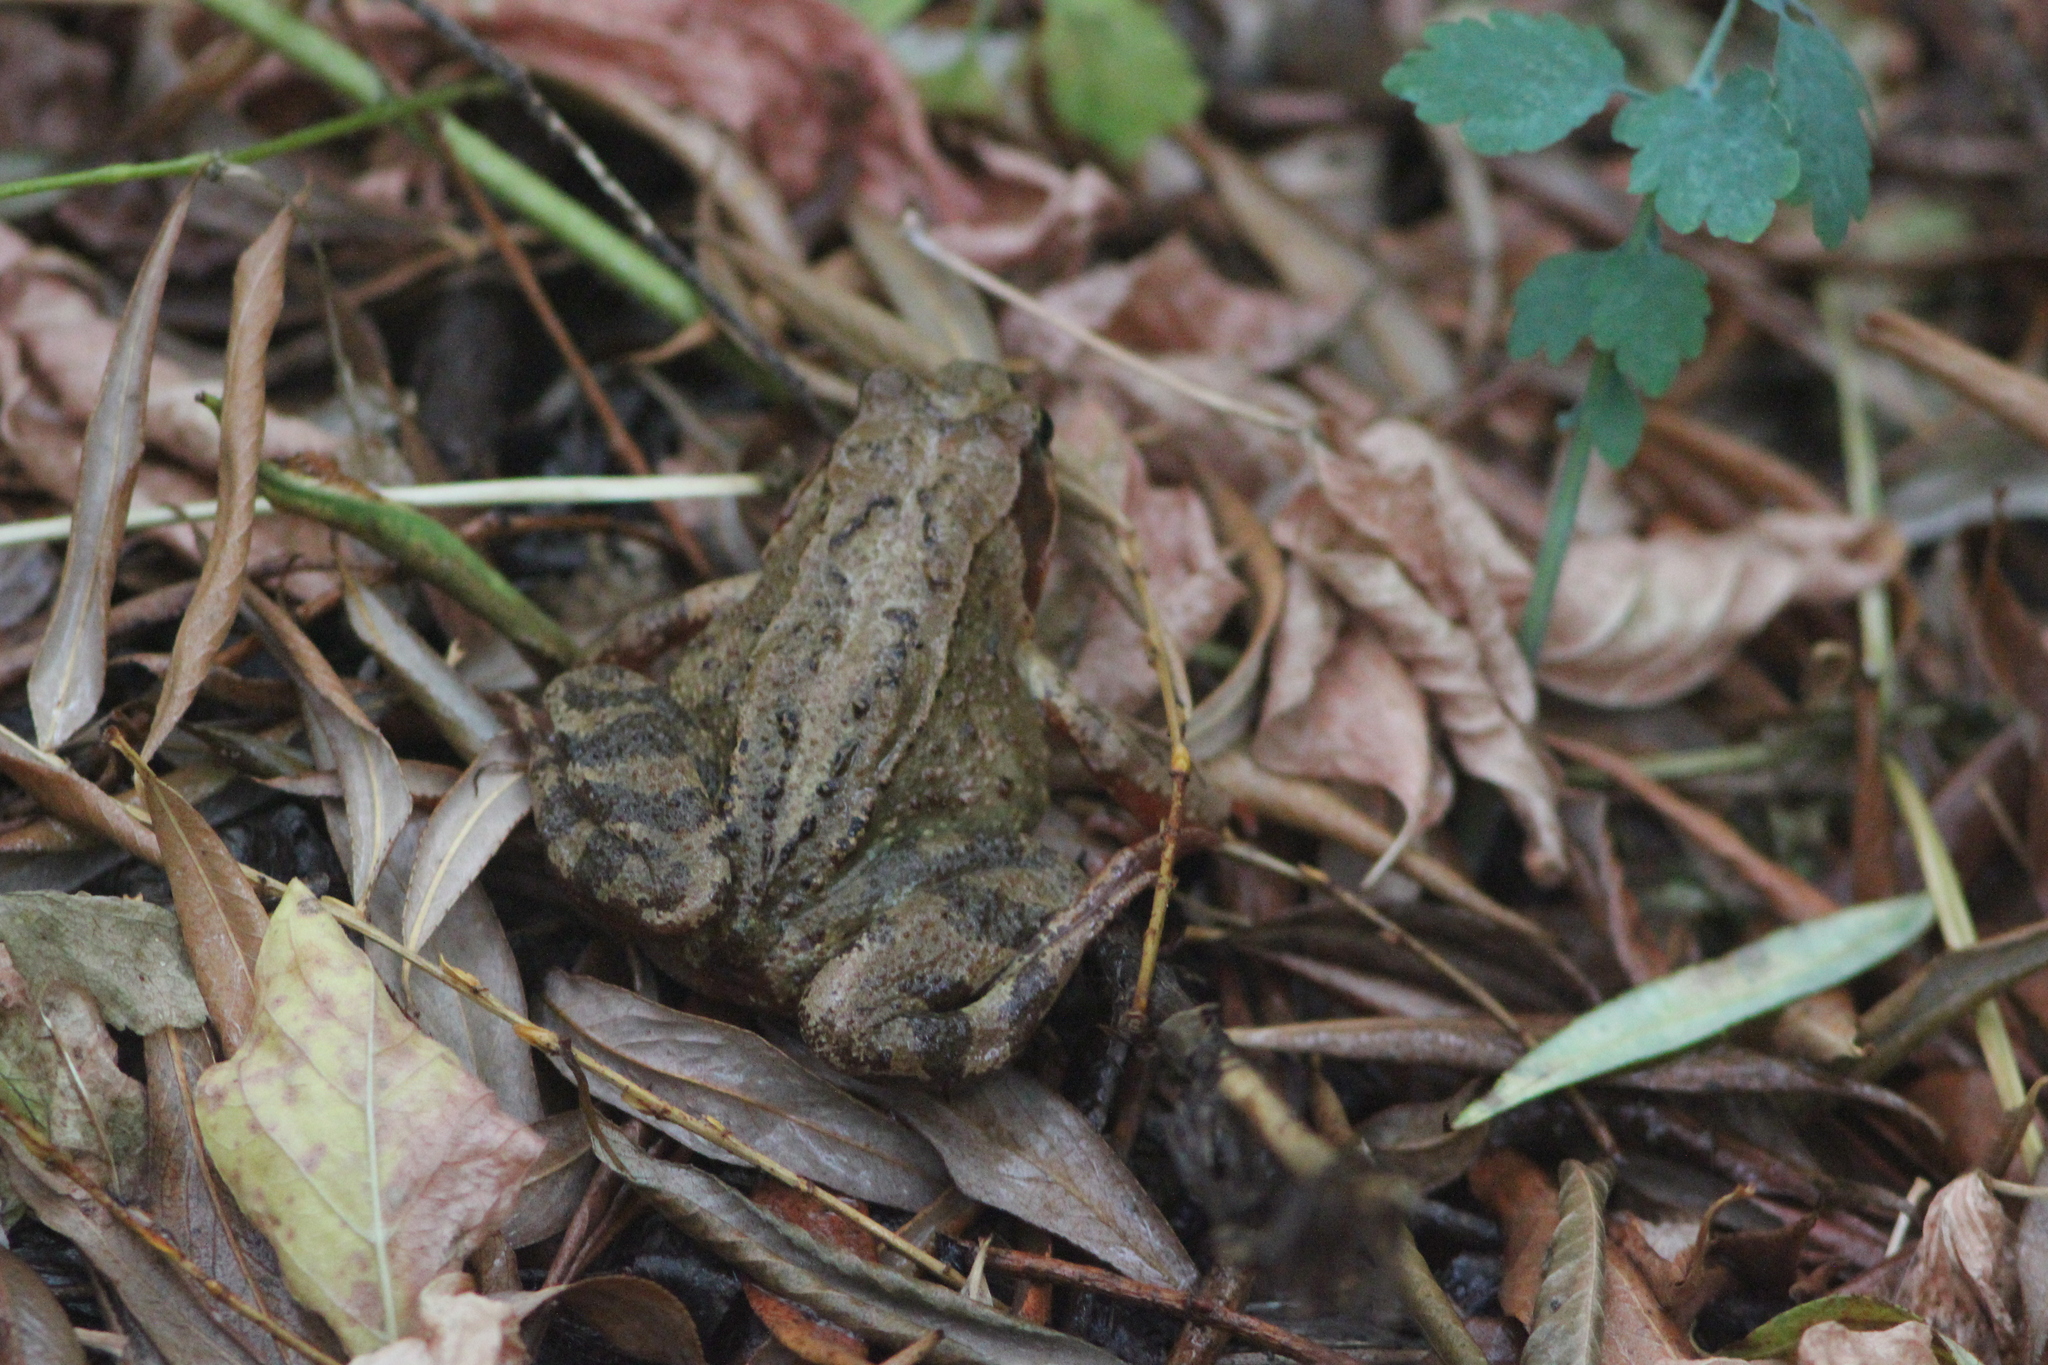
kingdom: Animalia
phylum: Chordata
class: Amphibia
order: Anura
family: Ranidae
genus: Rana
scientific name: Rana
